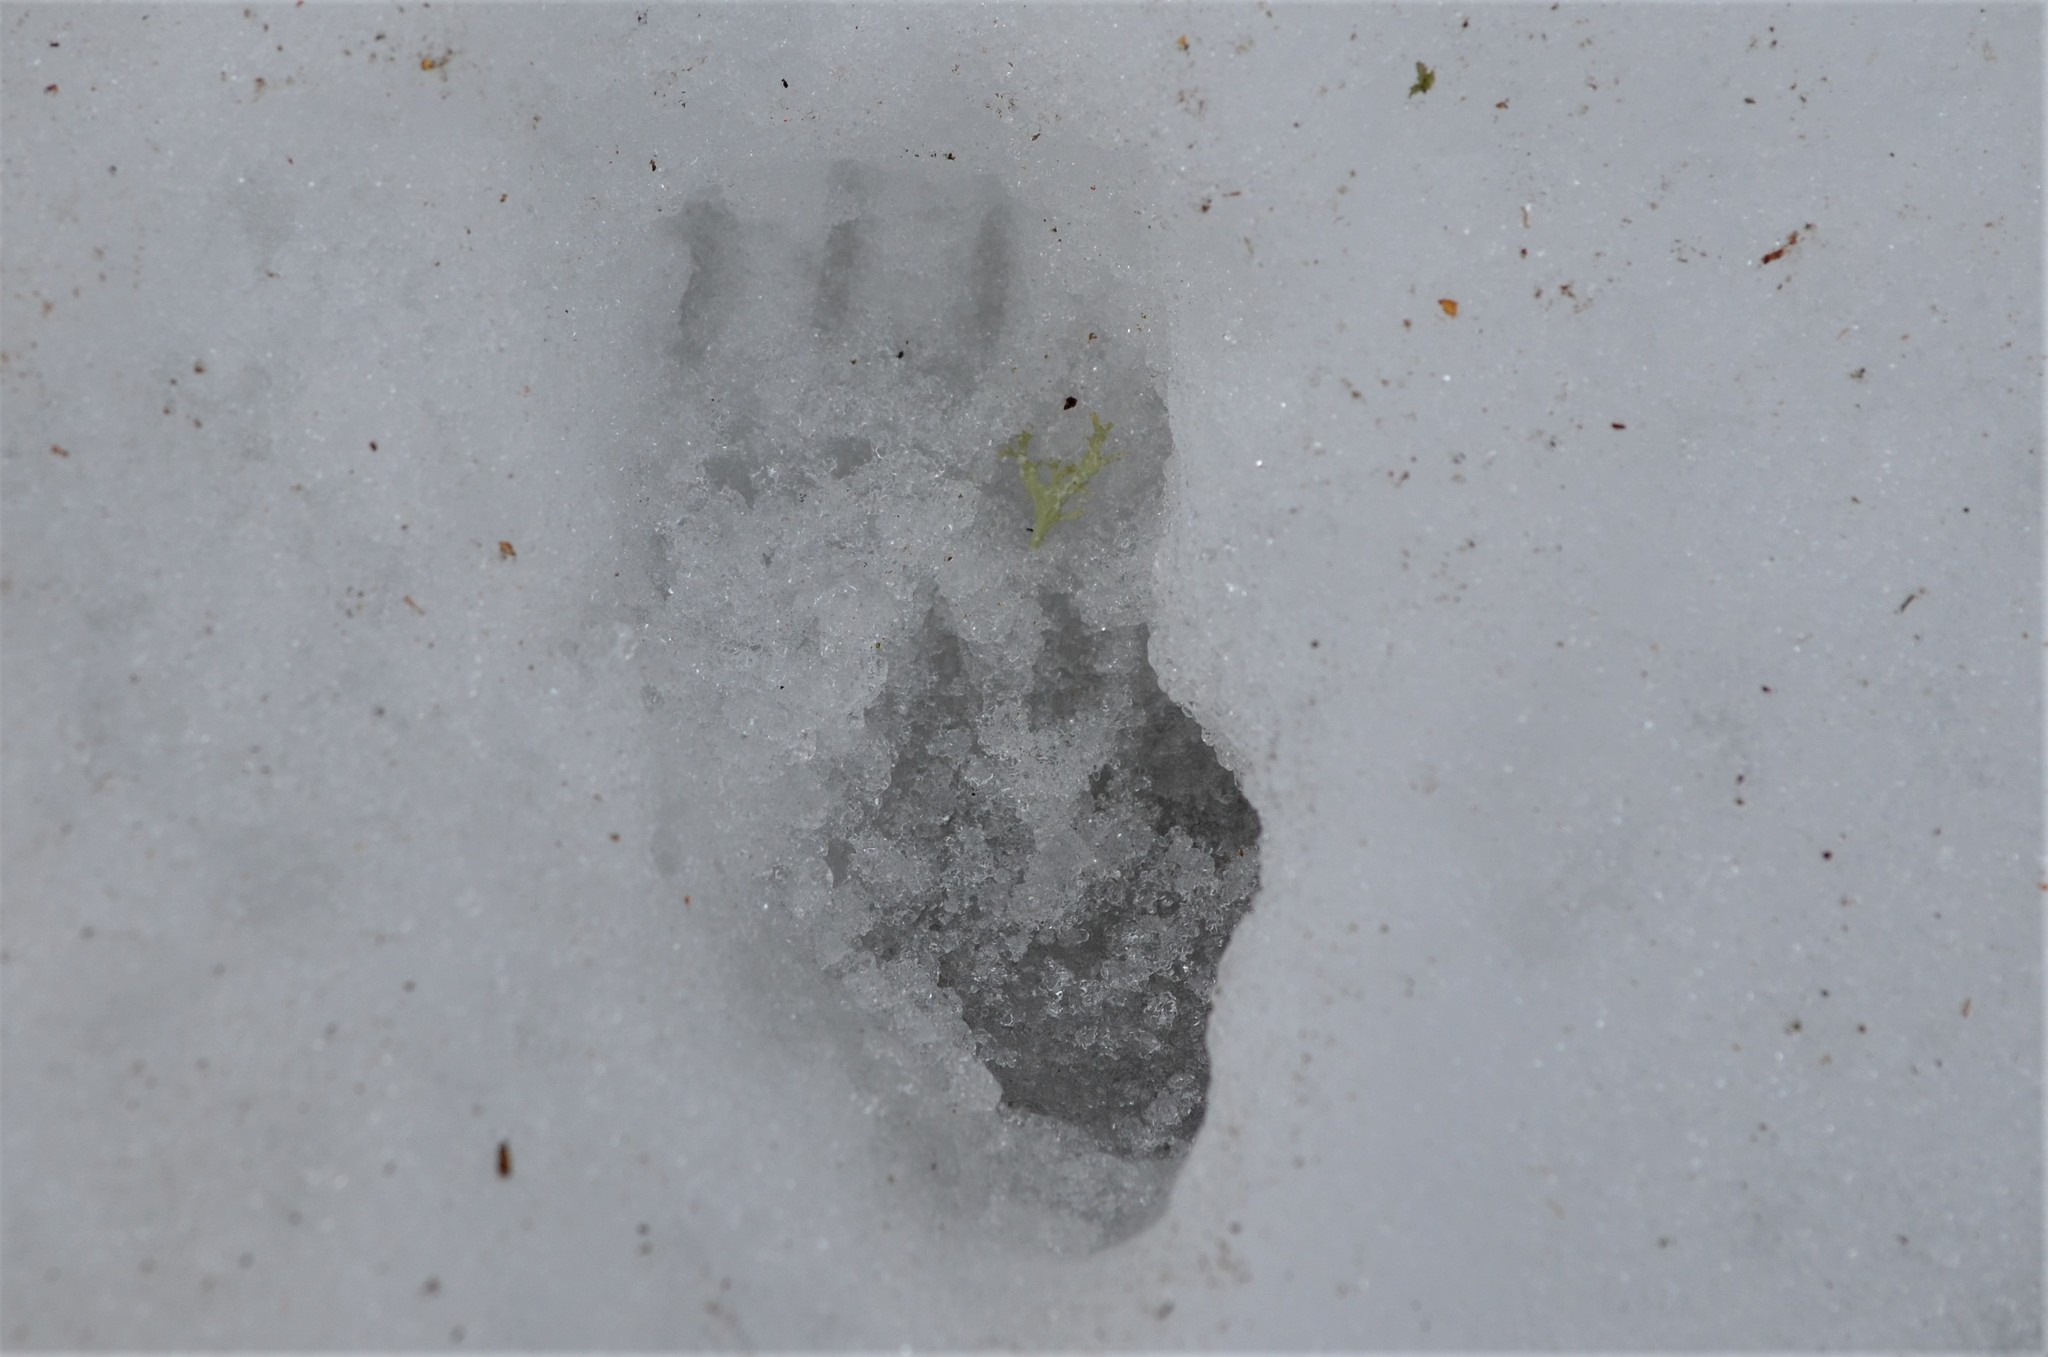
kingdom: Animalia
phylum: Chordata
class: Mammalia
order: Carnivora
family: Mustelidae
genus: Meles
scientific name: Meles meles
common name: Eurasian badger
